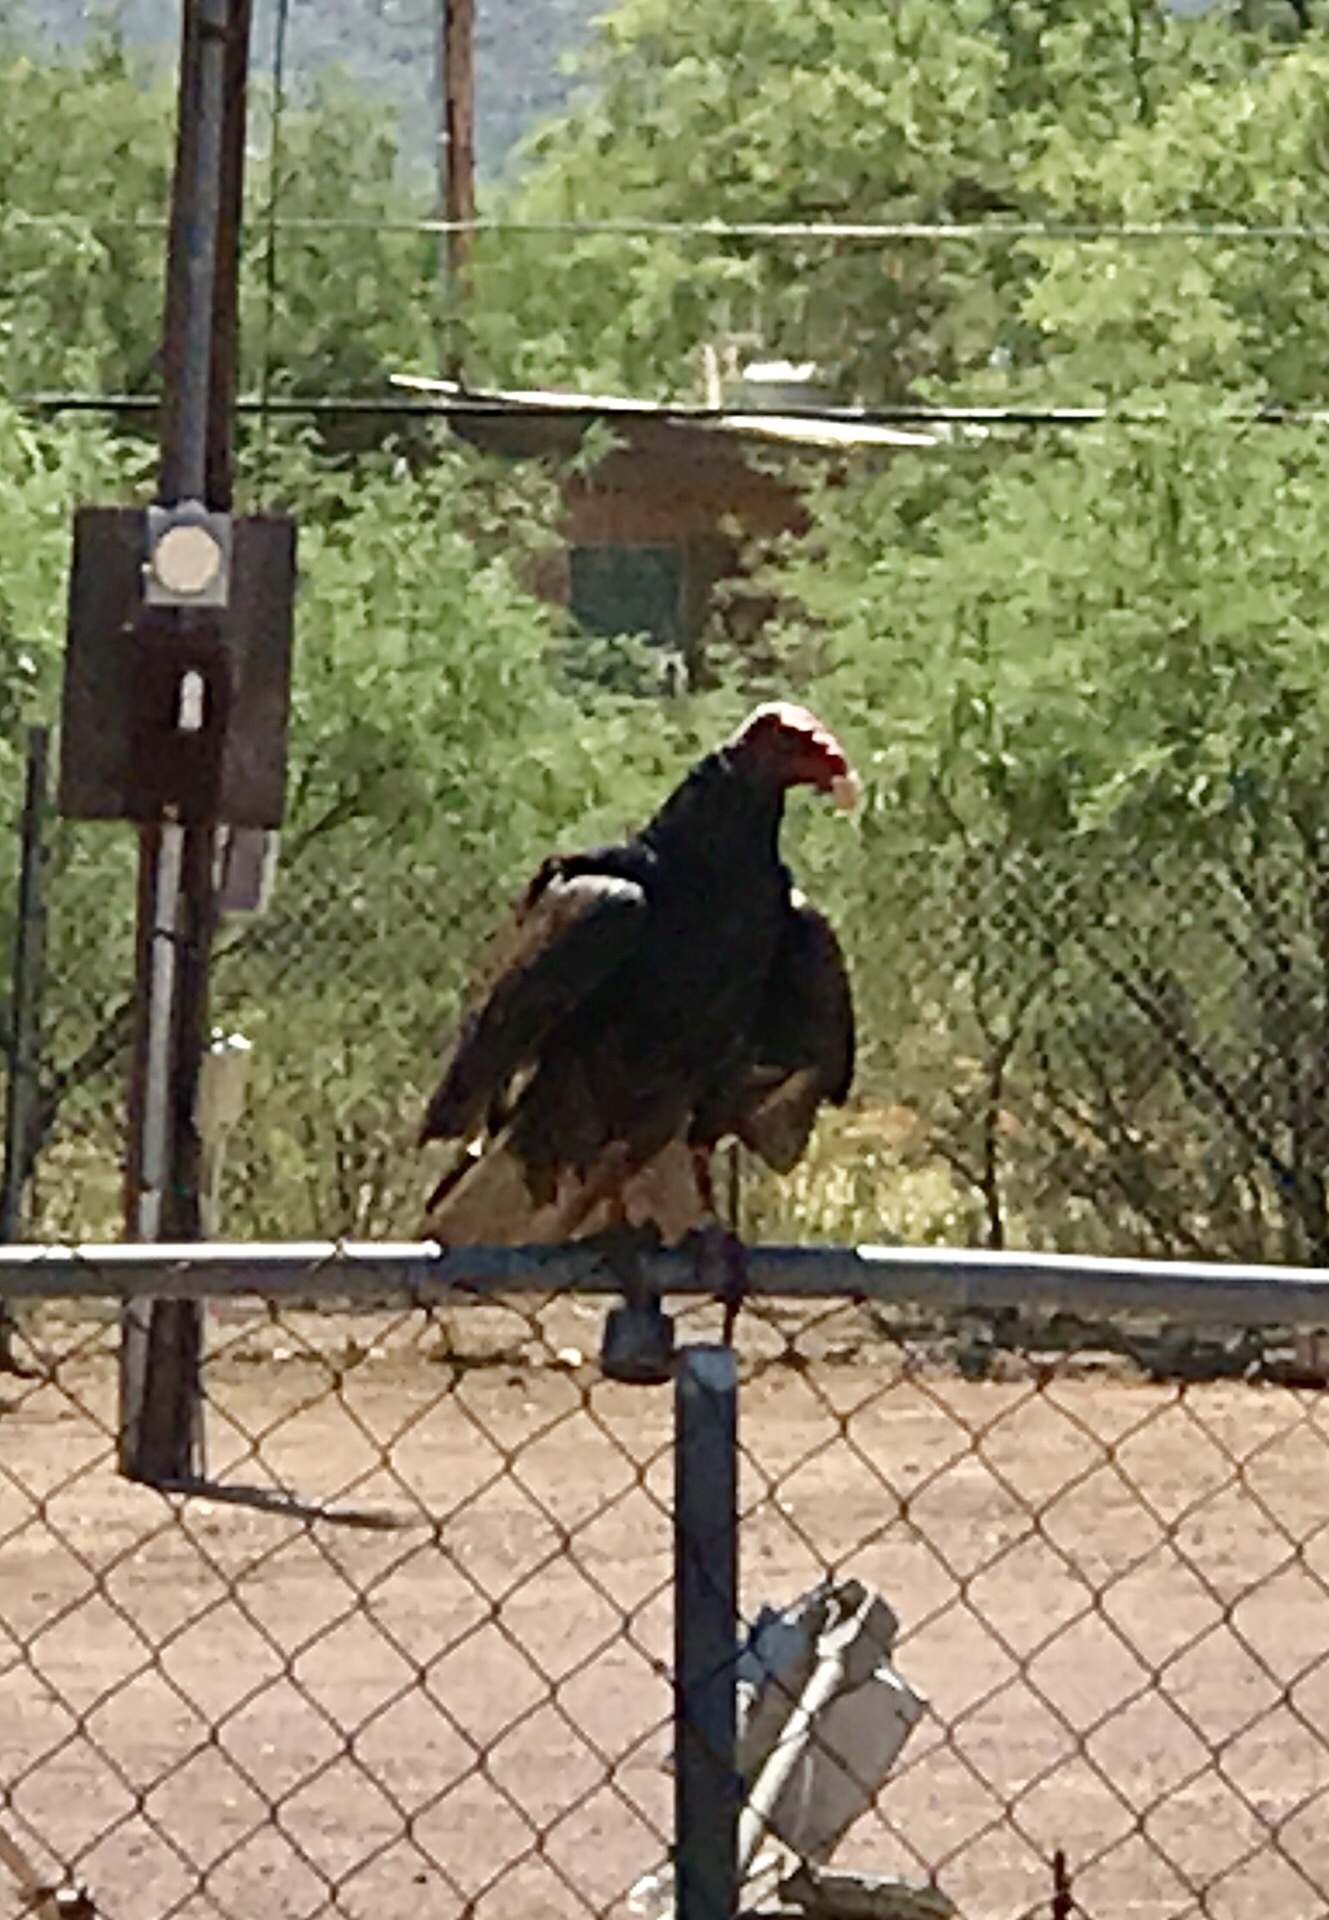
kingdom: Animalia
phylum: Chordata
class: Aves
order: Accipitriformes
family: Cathartidae
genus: Cathartes
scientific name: Cathartes aura
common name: Turkey vulture
